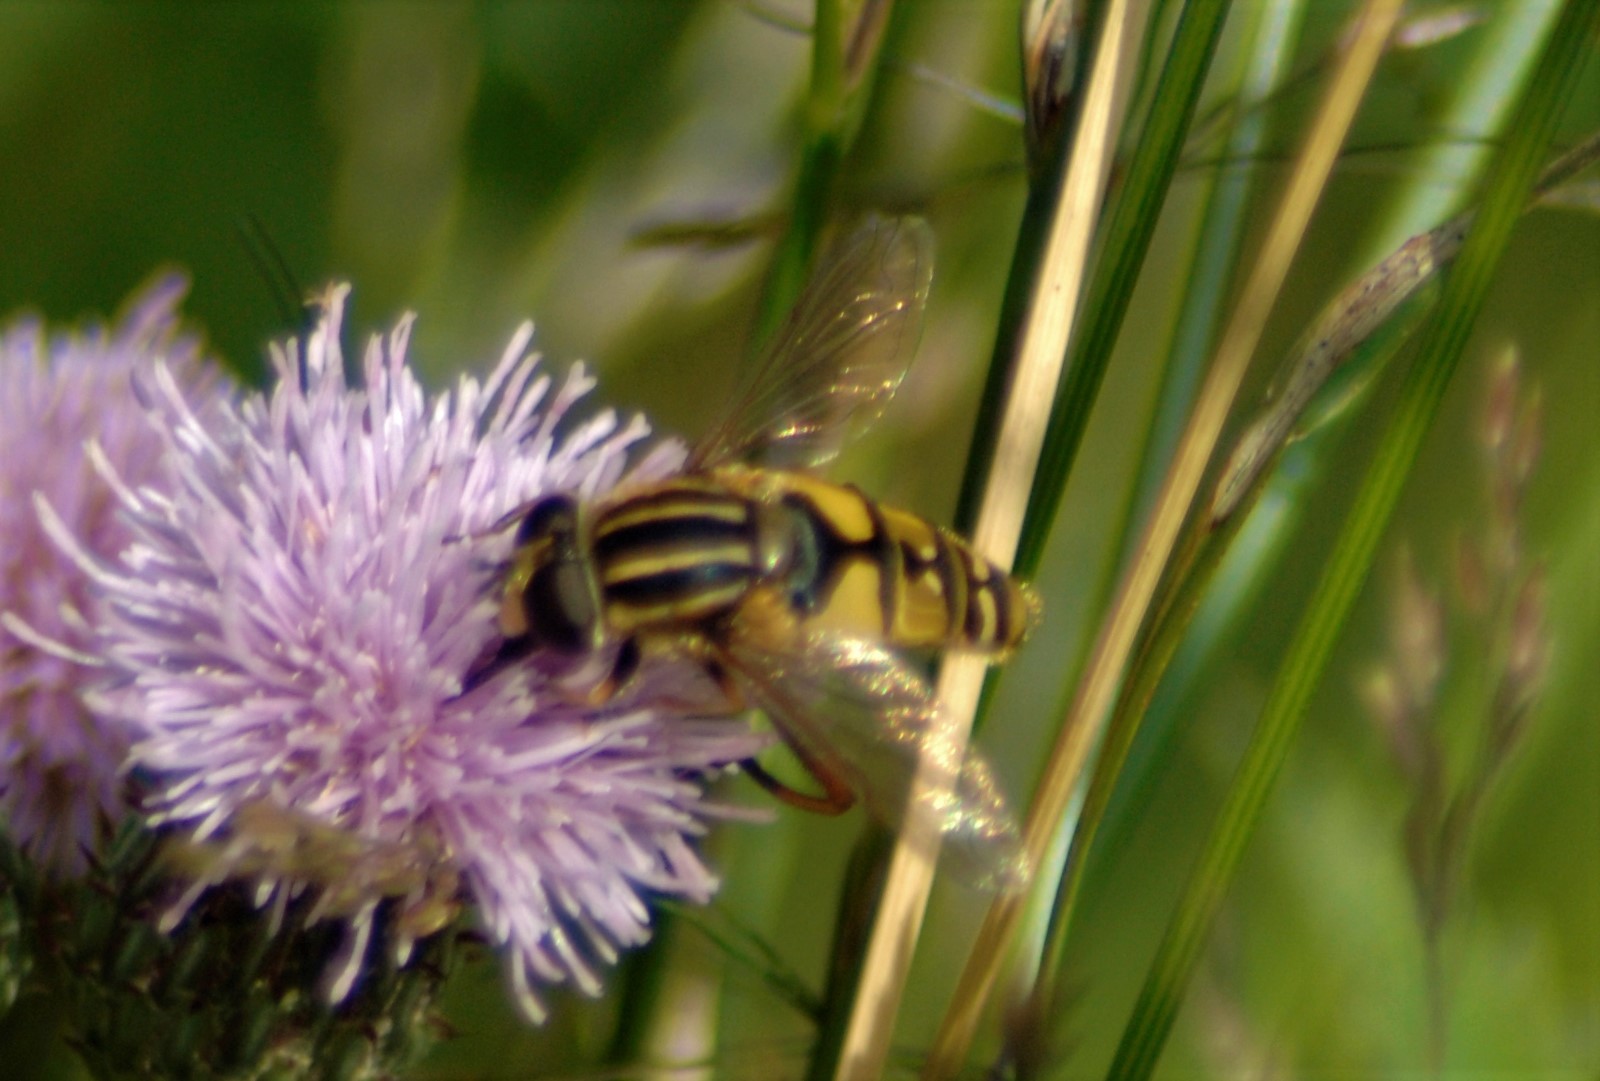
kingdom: Animalia
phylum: Arthropoda
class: Insecta
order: Diptera
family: Syrphidae
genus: Helophilus
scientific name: Helophilus pendulus
